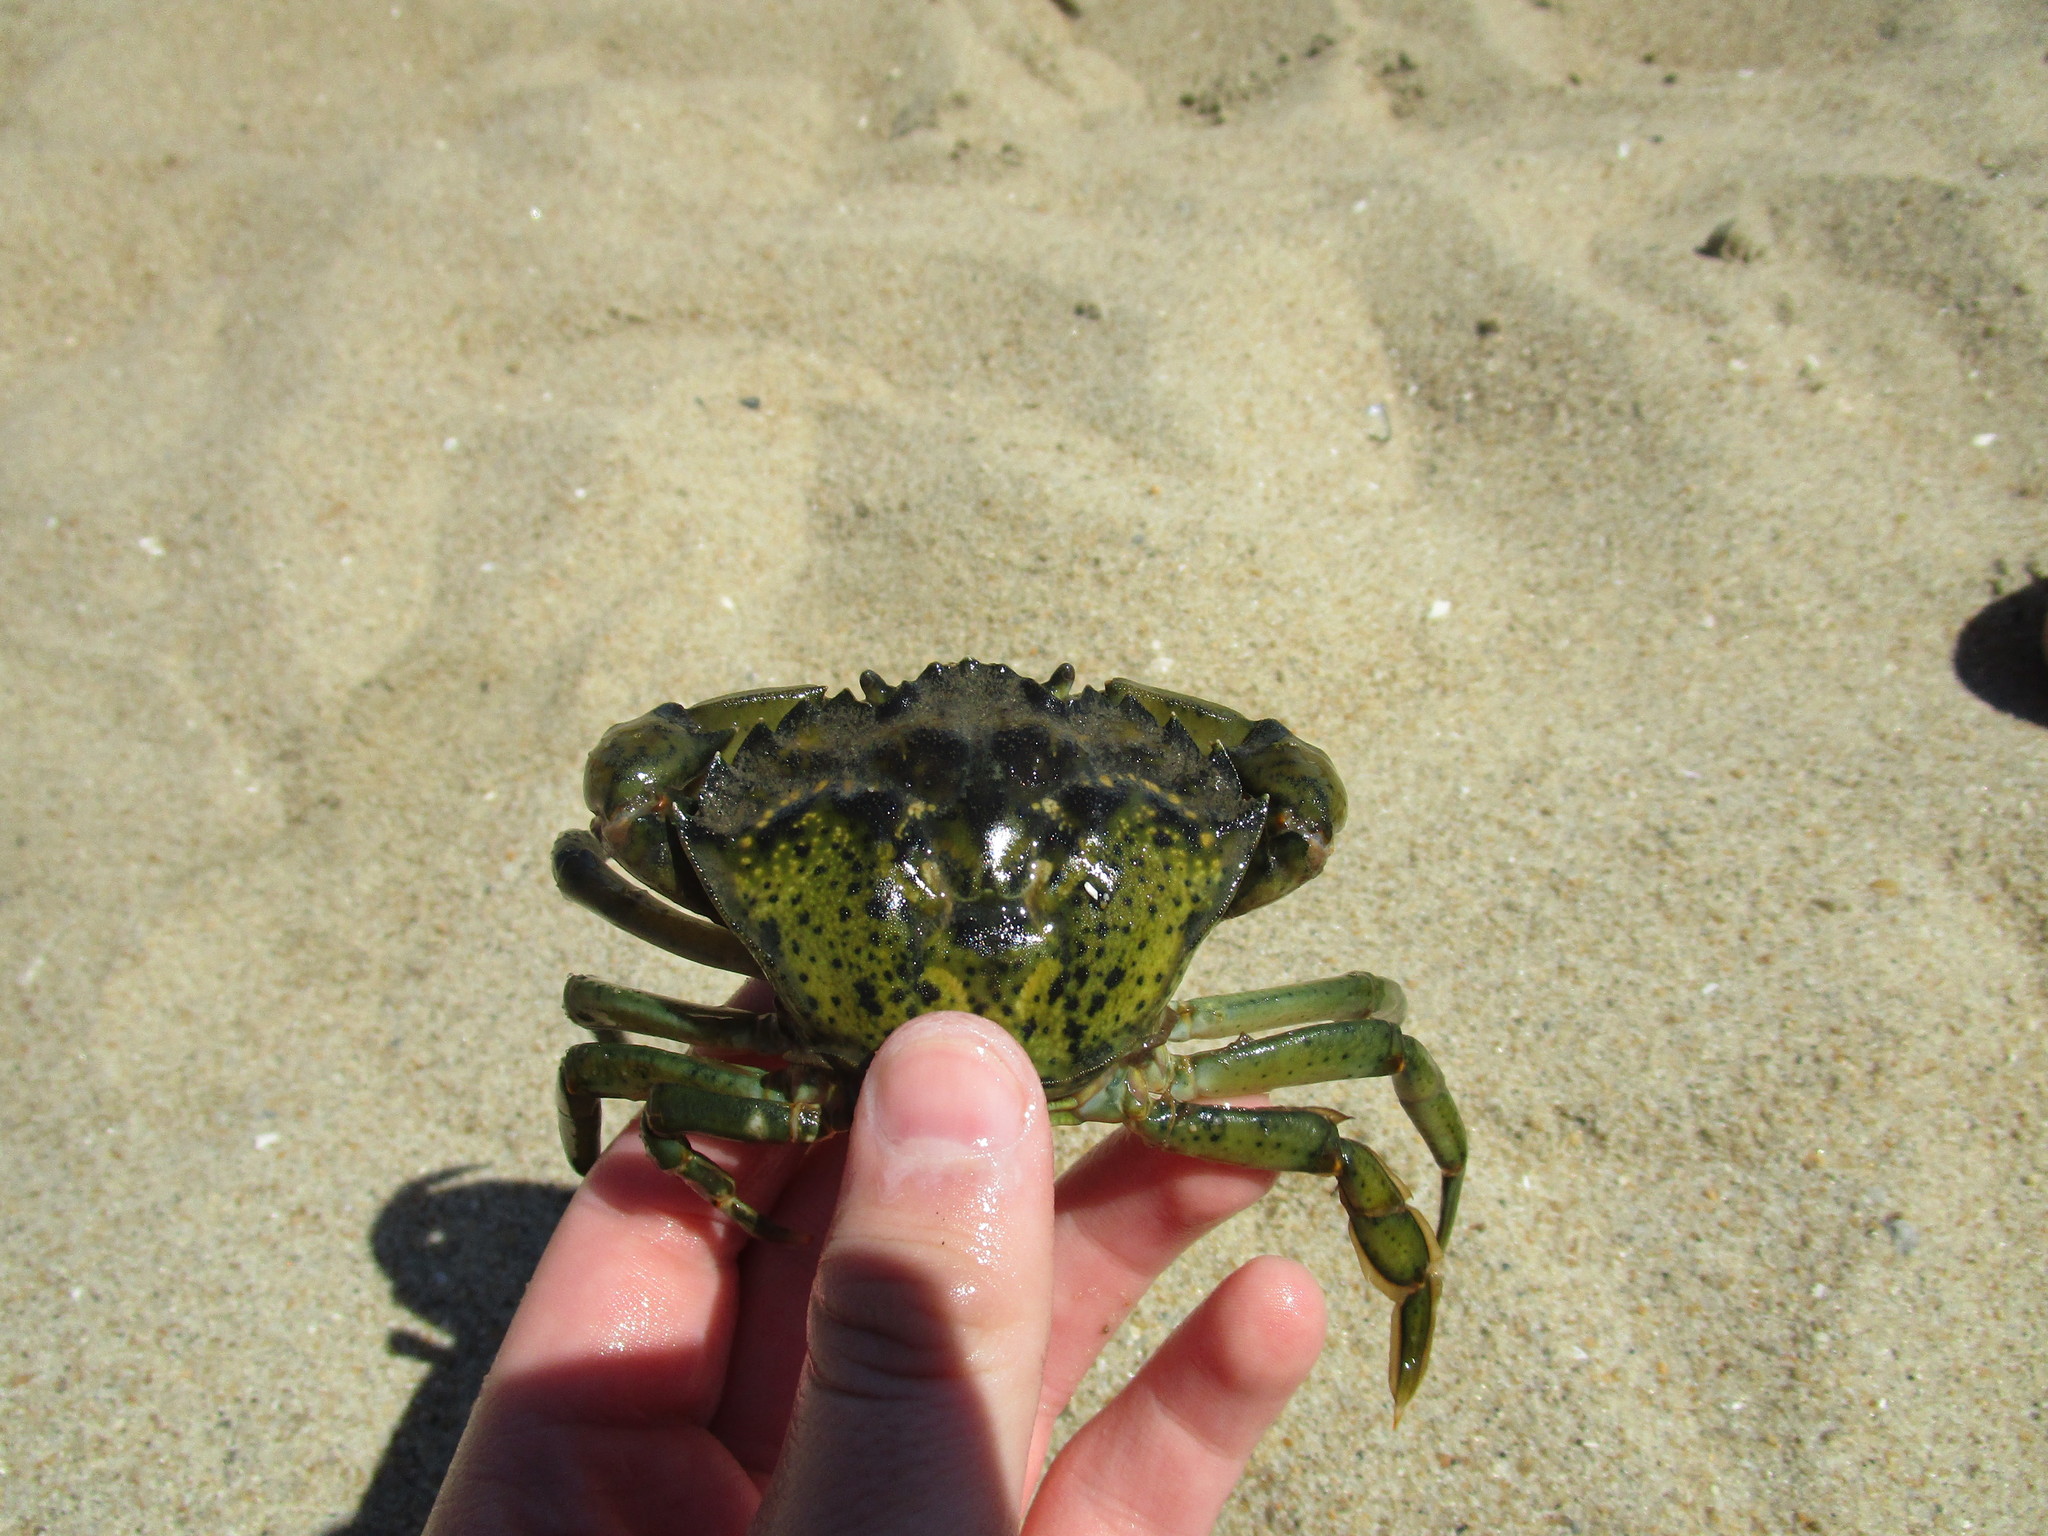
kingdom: Animalia
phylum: Arthropoda
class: Malacostraca
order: Decapoda
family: Carcinidae
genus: Carcinus
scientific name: Carcinus maenas
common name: European green crab
